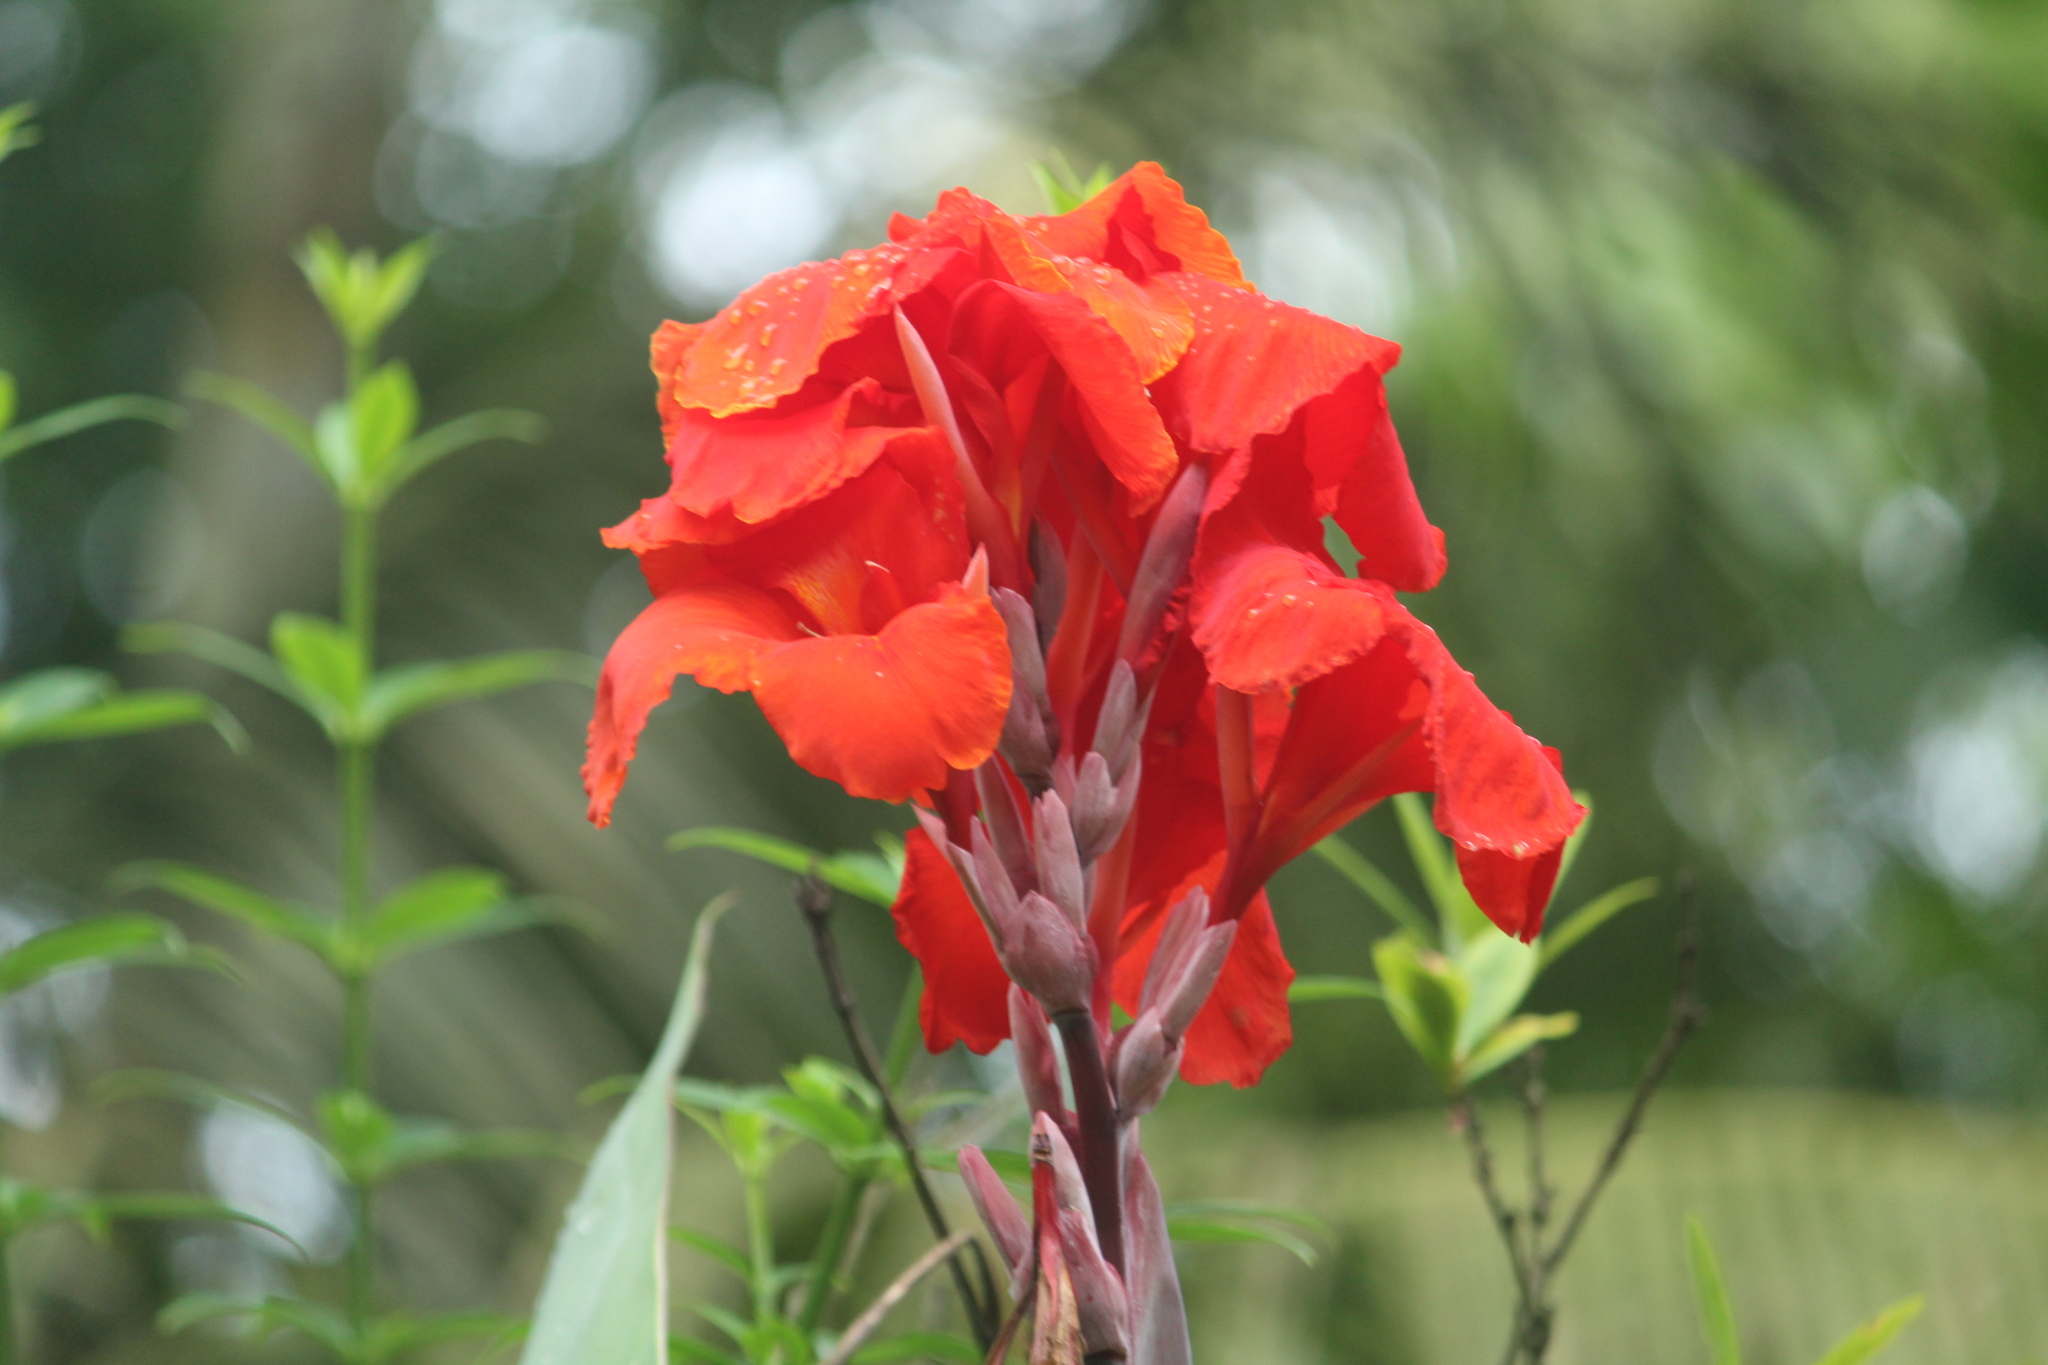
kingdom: Plantae
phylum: Tracheophyta
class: Liliopsida
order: Zingiberales
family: Cannaceae
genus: Canna
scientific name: Canna hybrida
